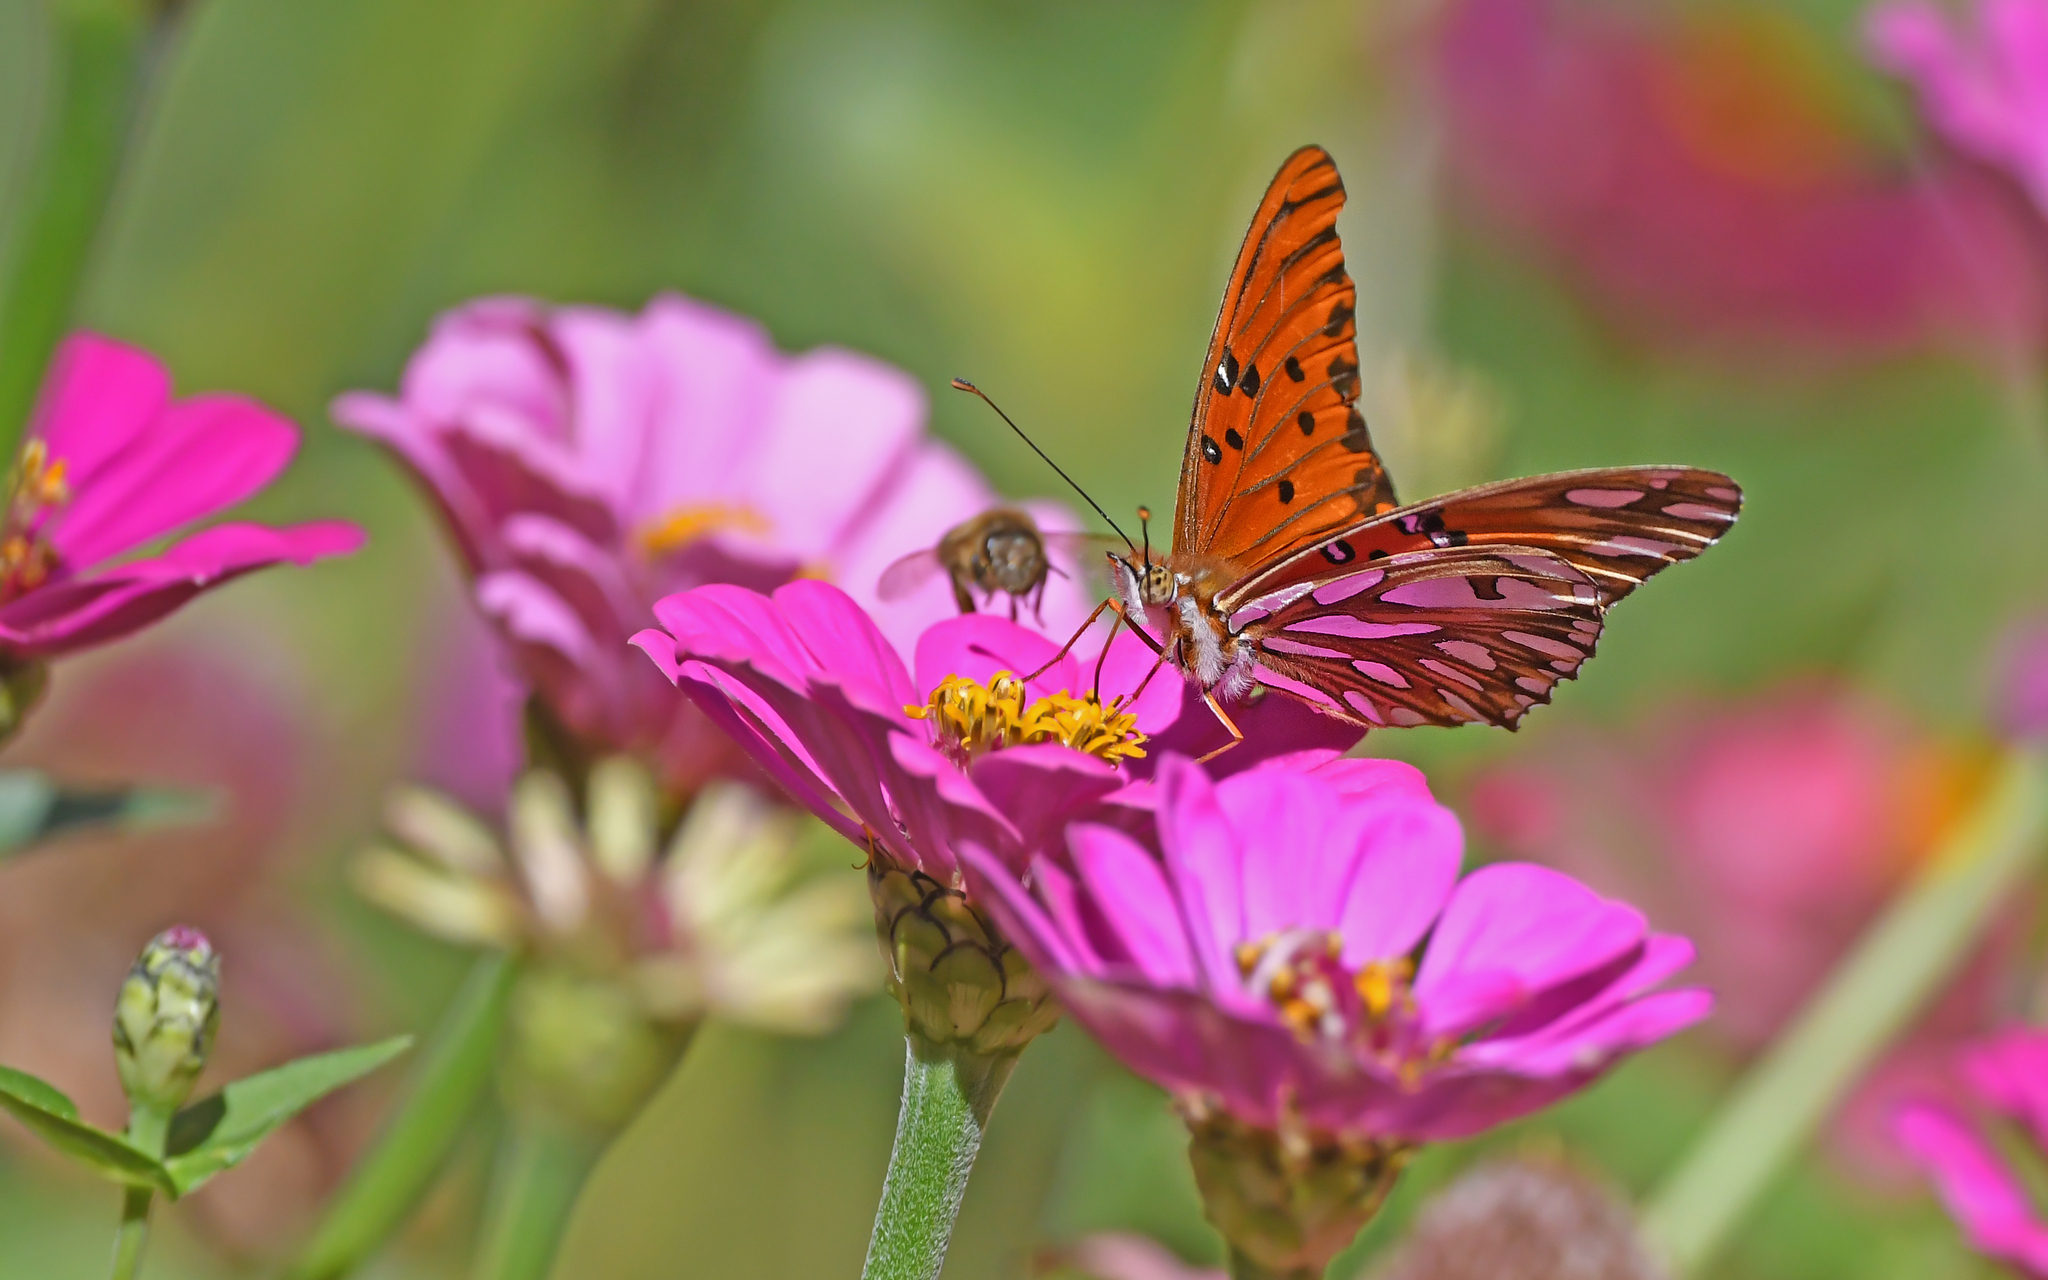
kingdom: Animalia
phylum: Arthropoda
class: Insecta
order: Lepidoptera
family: Nymphalidae
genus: Dione
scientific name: Dione vanillae
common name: Gulf fritillary
